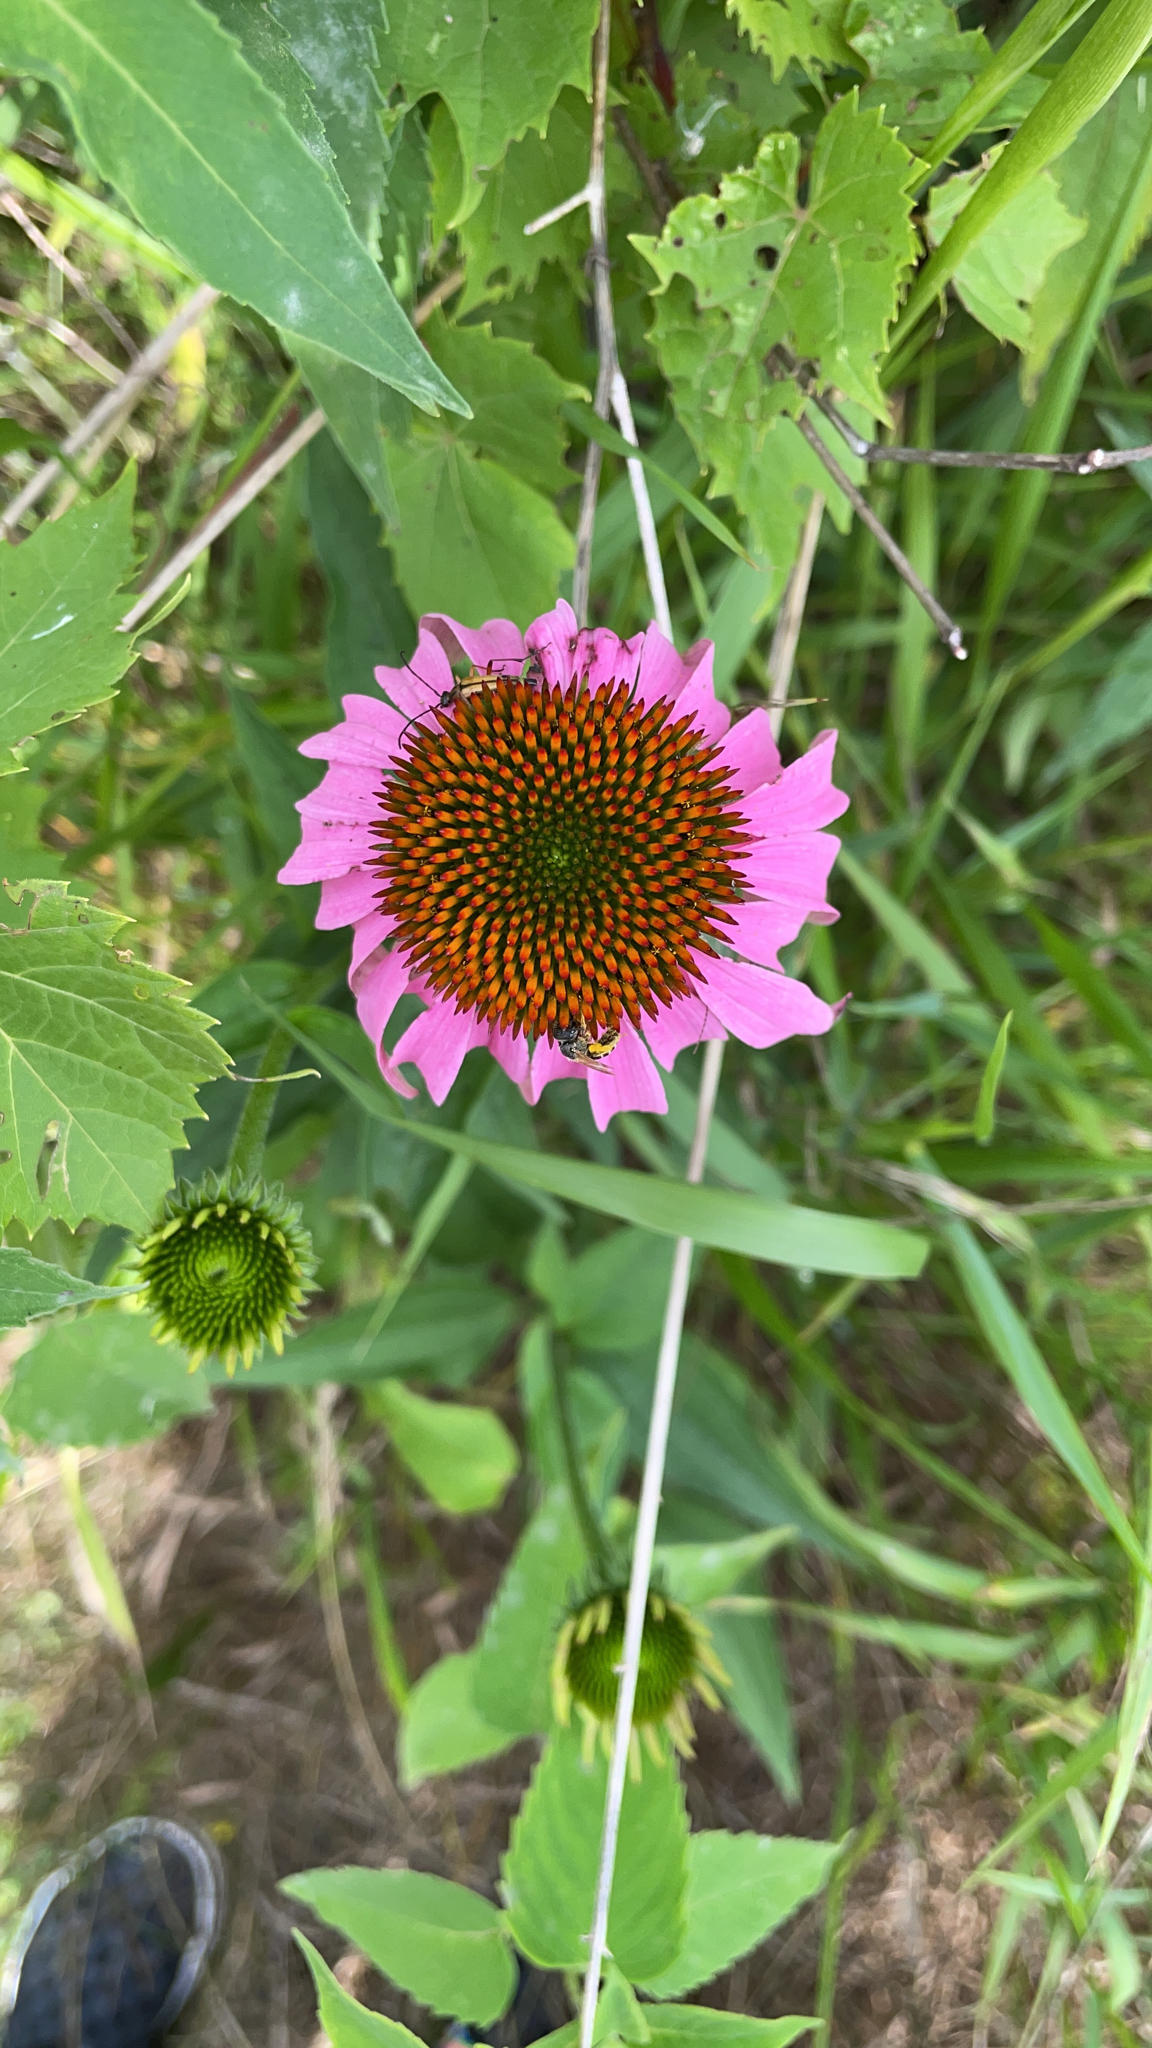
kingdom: Plantae
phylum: Tracheophyta
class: Magnoliopsida
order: Asterales
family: Asteraceae
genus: Echinacea
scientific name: Echinacea purpurea
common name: Broad-leaved purple coneflower
